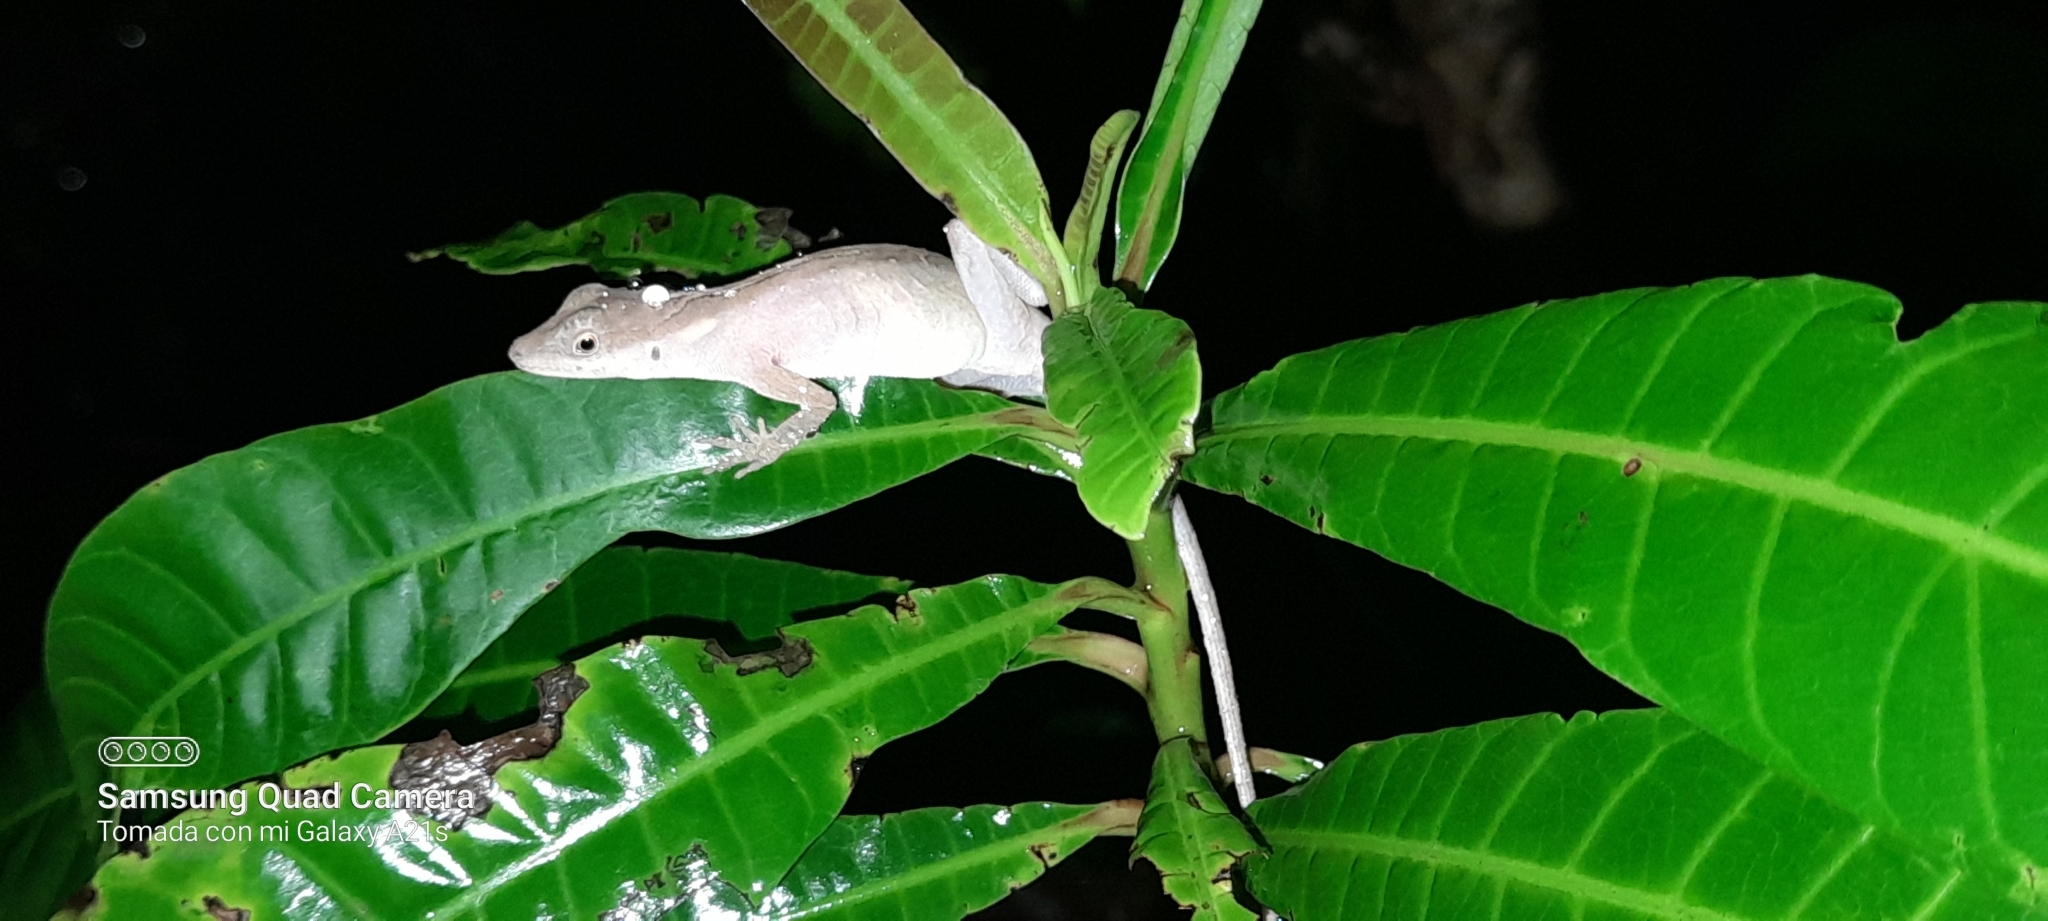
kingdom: Animalia
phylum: Chordata
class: Squamata
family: Dactyloidae
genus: Anolis
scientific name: Anolis gaigei
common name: Gaige’s anole
